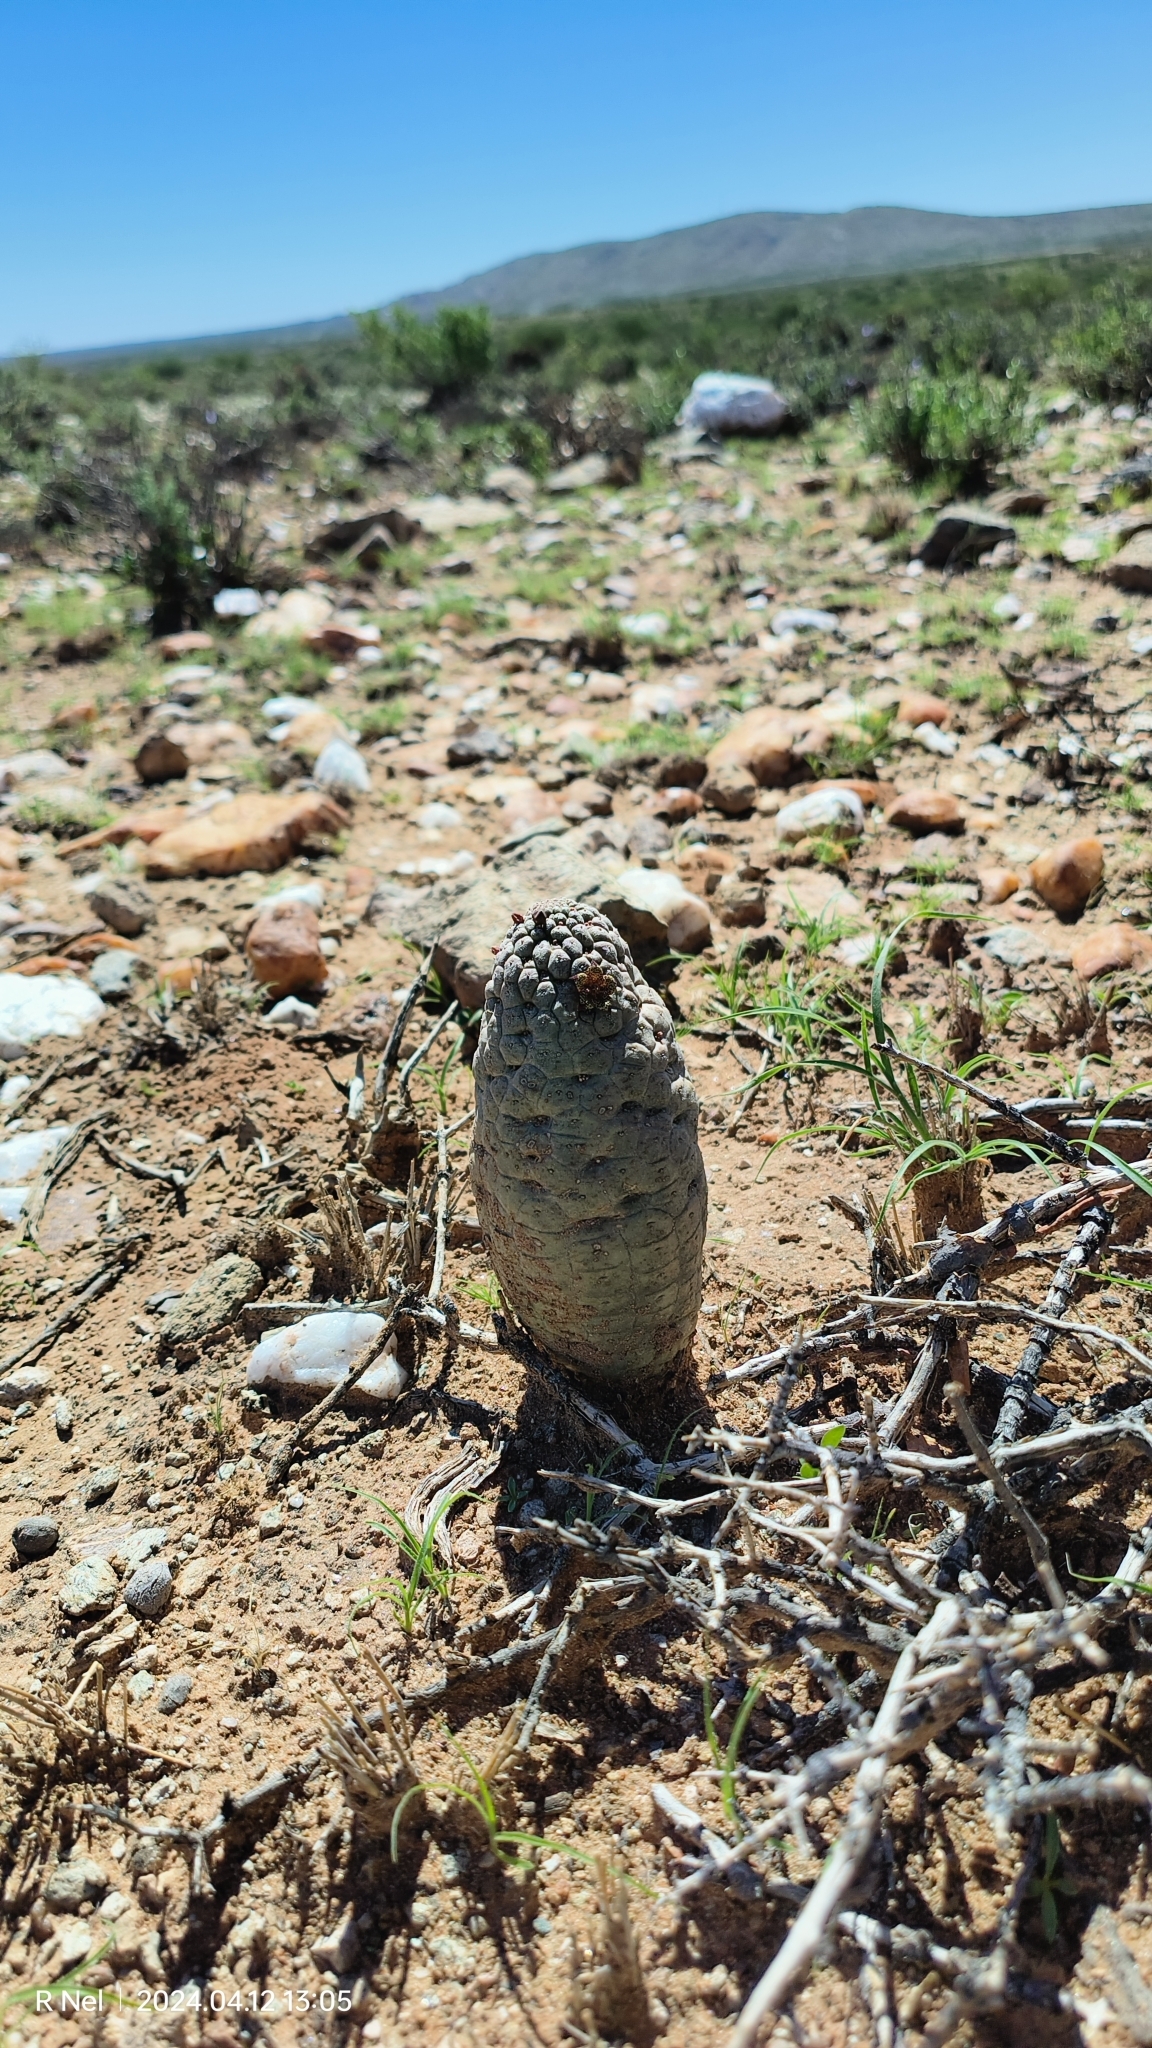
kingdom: Plantae
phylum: Tracheophyta
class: Magnoliopsida
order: Gentianales
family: Apocynaceae
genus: Ceropegia
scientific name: Ceropegia marlothii
